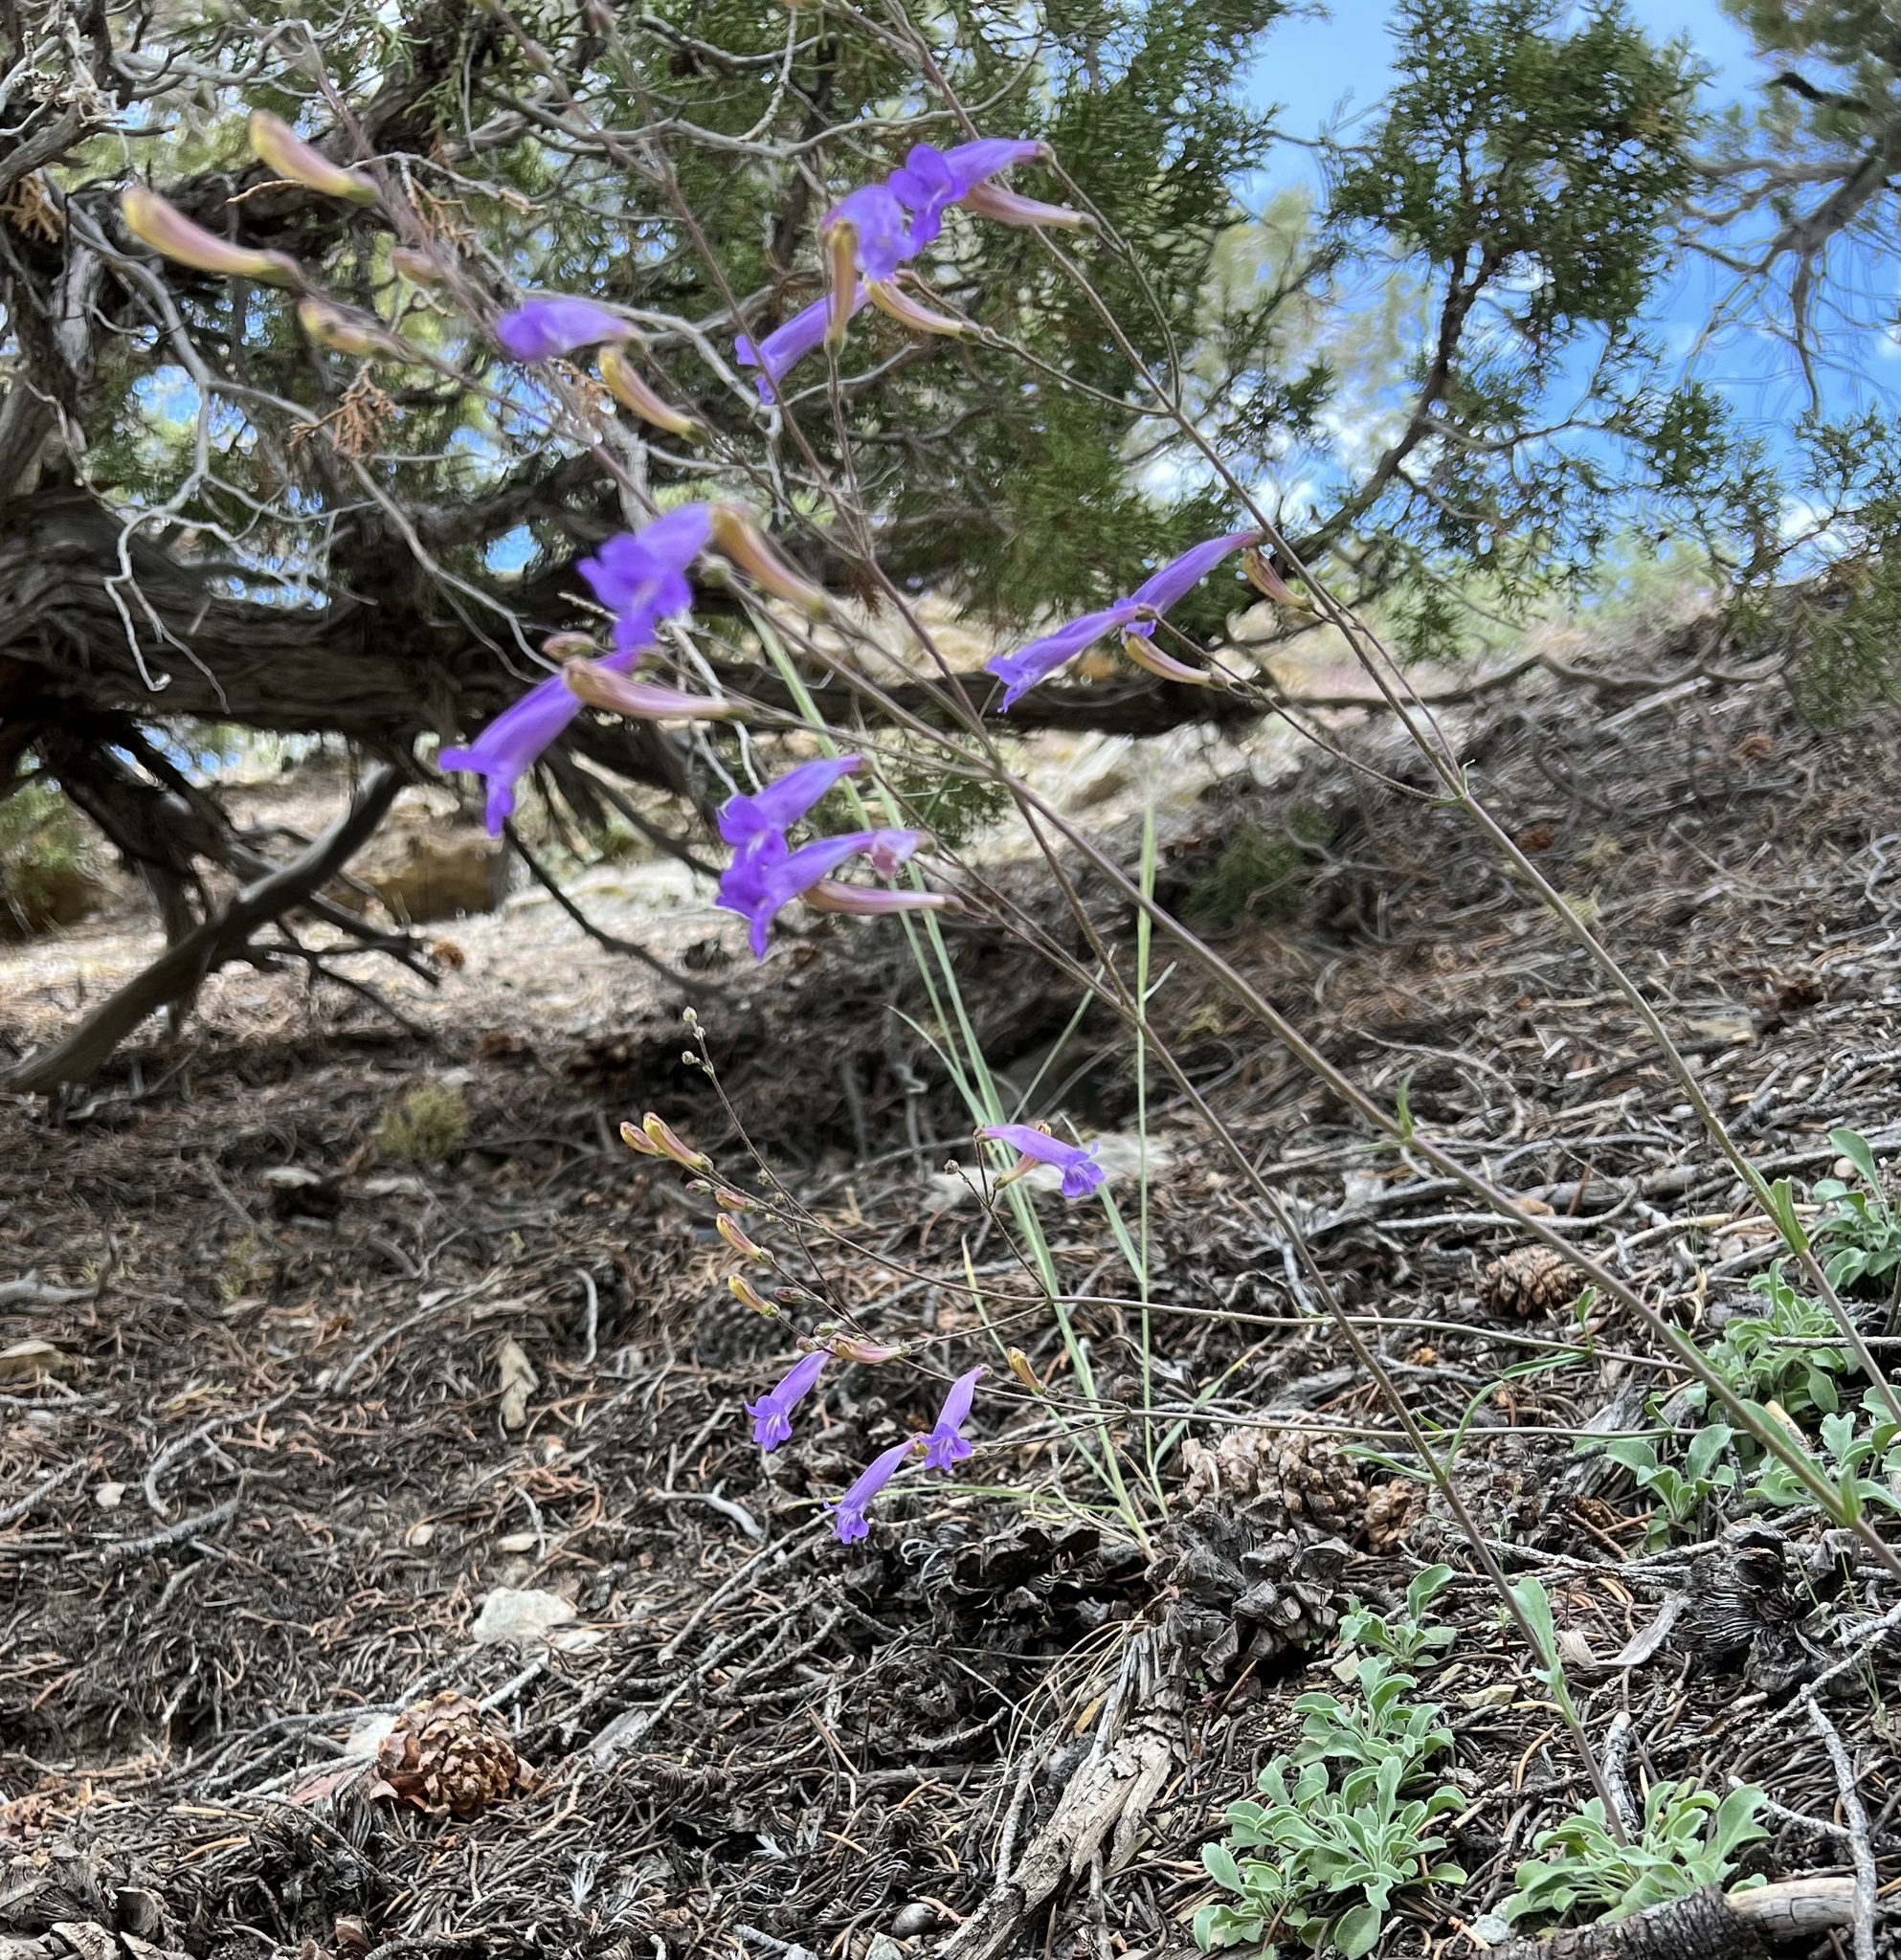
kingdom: Plantae
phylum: Tracheophyta
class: Magnoliopsida
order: Lamiales
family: Plantaginaceae
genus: Penstemon
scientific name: Penstemon scapoides
